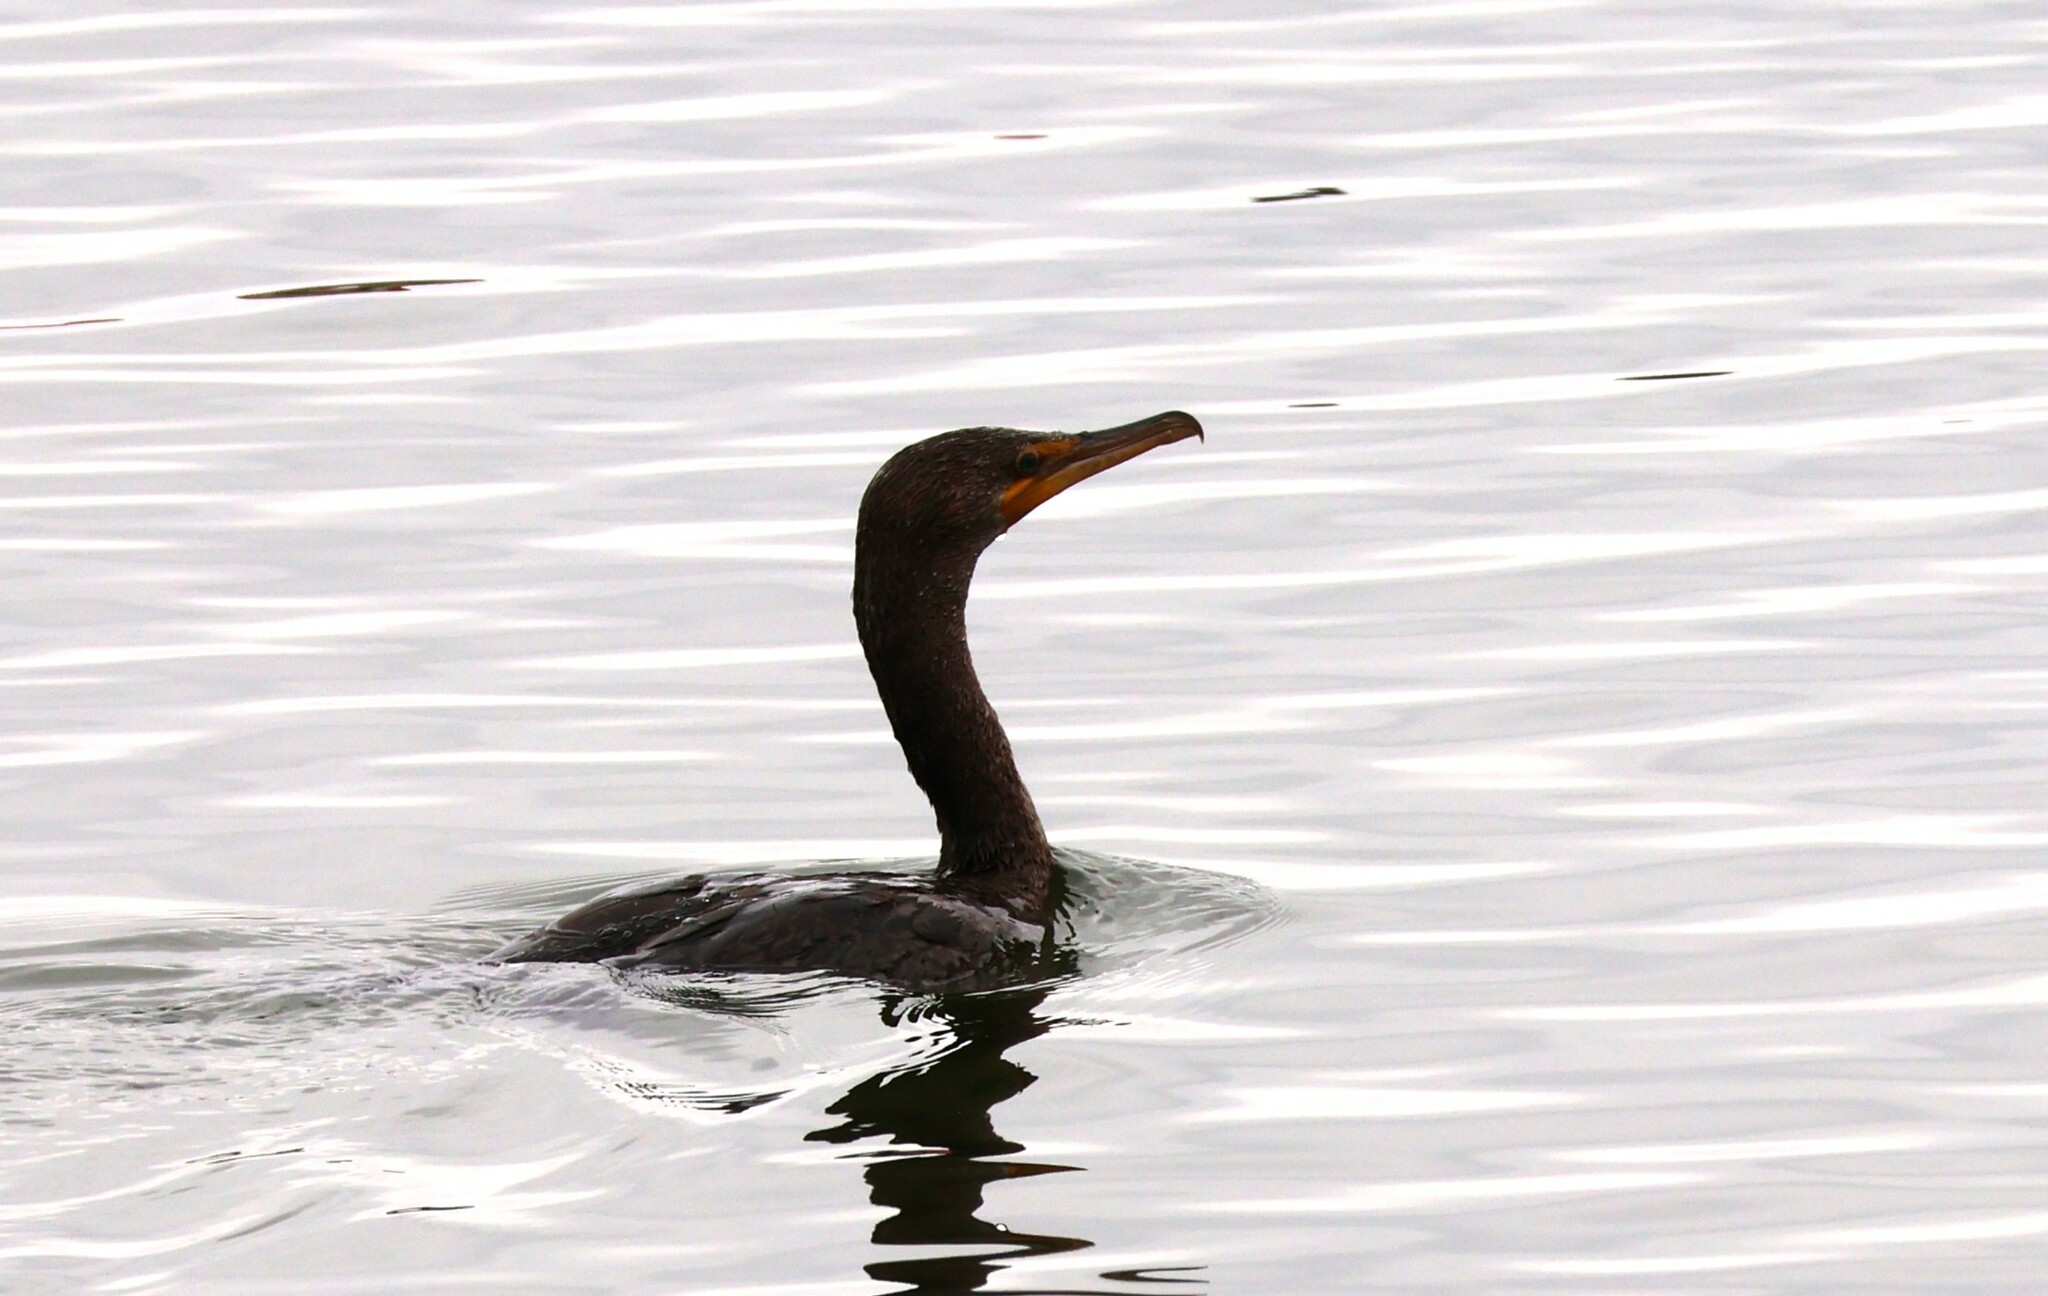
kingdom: Animalia
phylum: Chordata
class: Aves
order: Suliformes
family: Phalacrocoracidae
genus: Phalacrocorax
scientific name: Phalacrocorax auritus
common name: Double-crested cormorant
